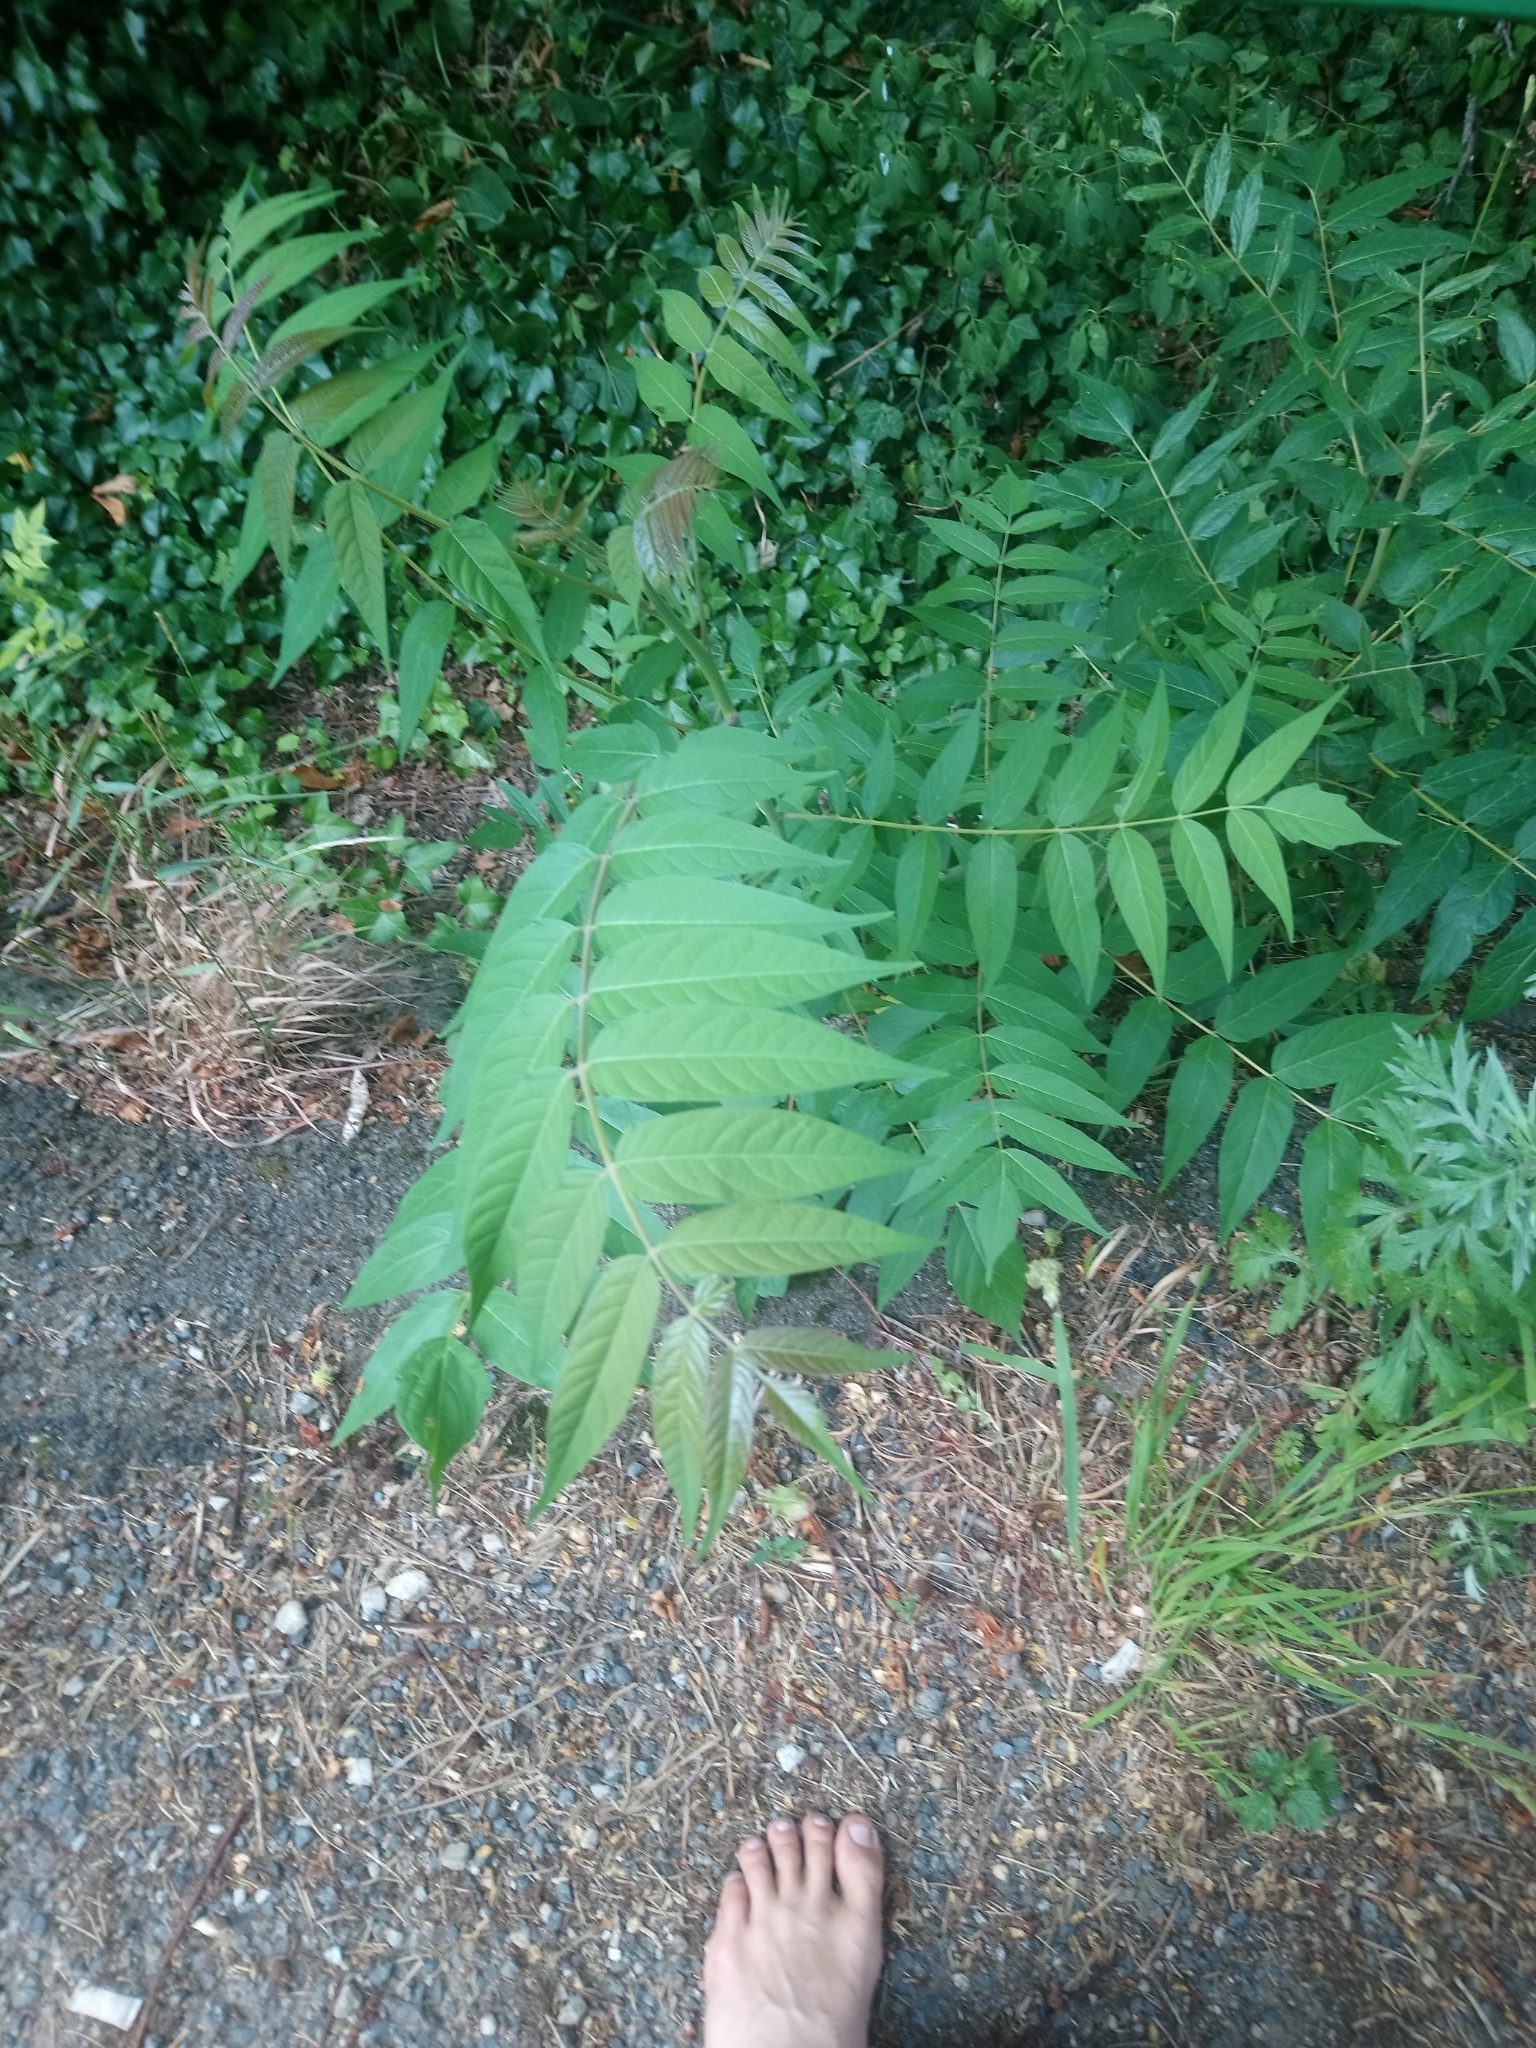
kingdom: Plantae
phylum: Tracheophyta
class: Magnoliopsida
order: Sapindales
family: Simaroubaceae
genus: Ailanthus
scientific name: Ailanthus altissima
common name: Tree-of-heaven
